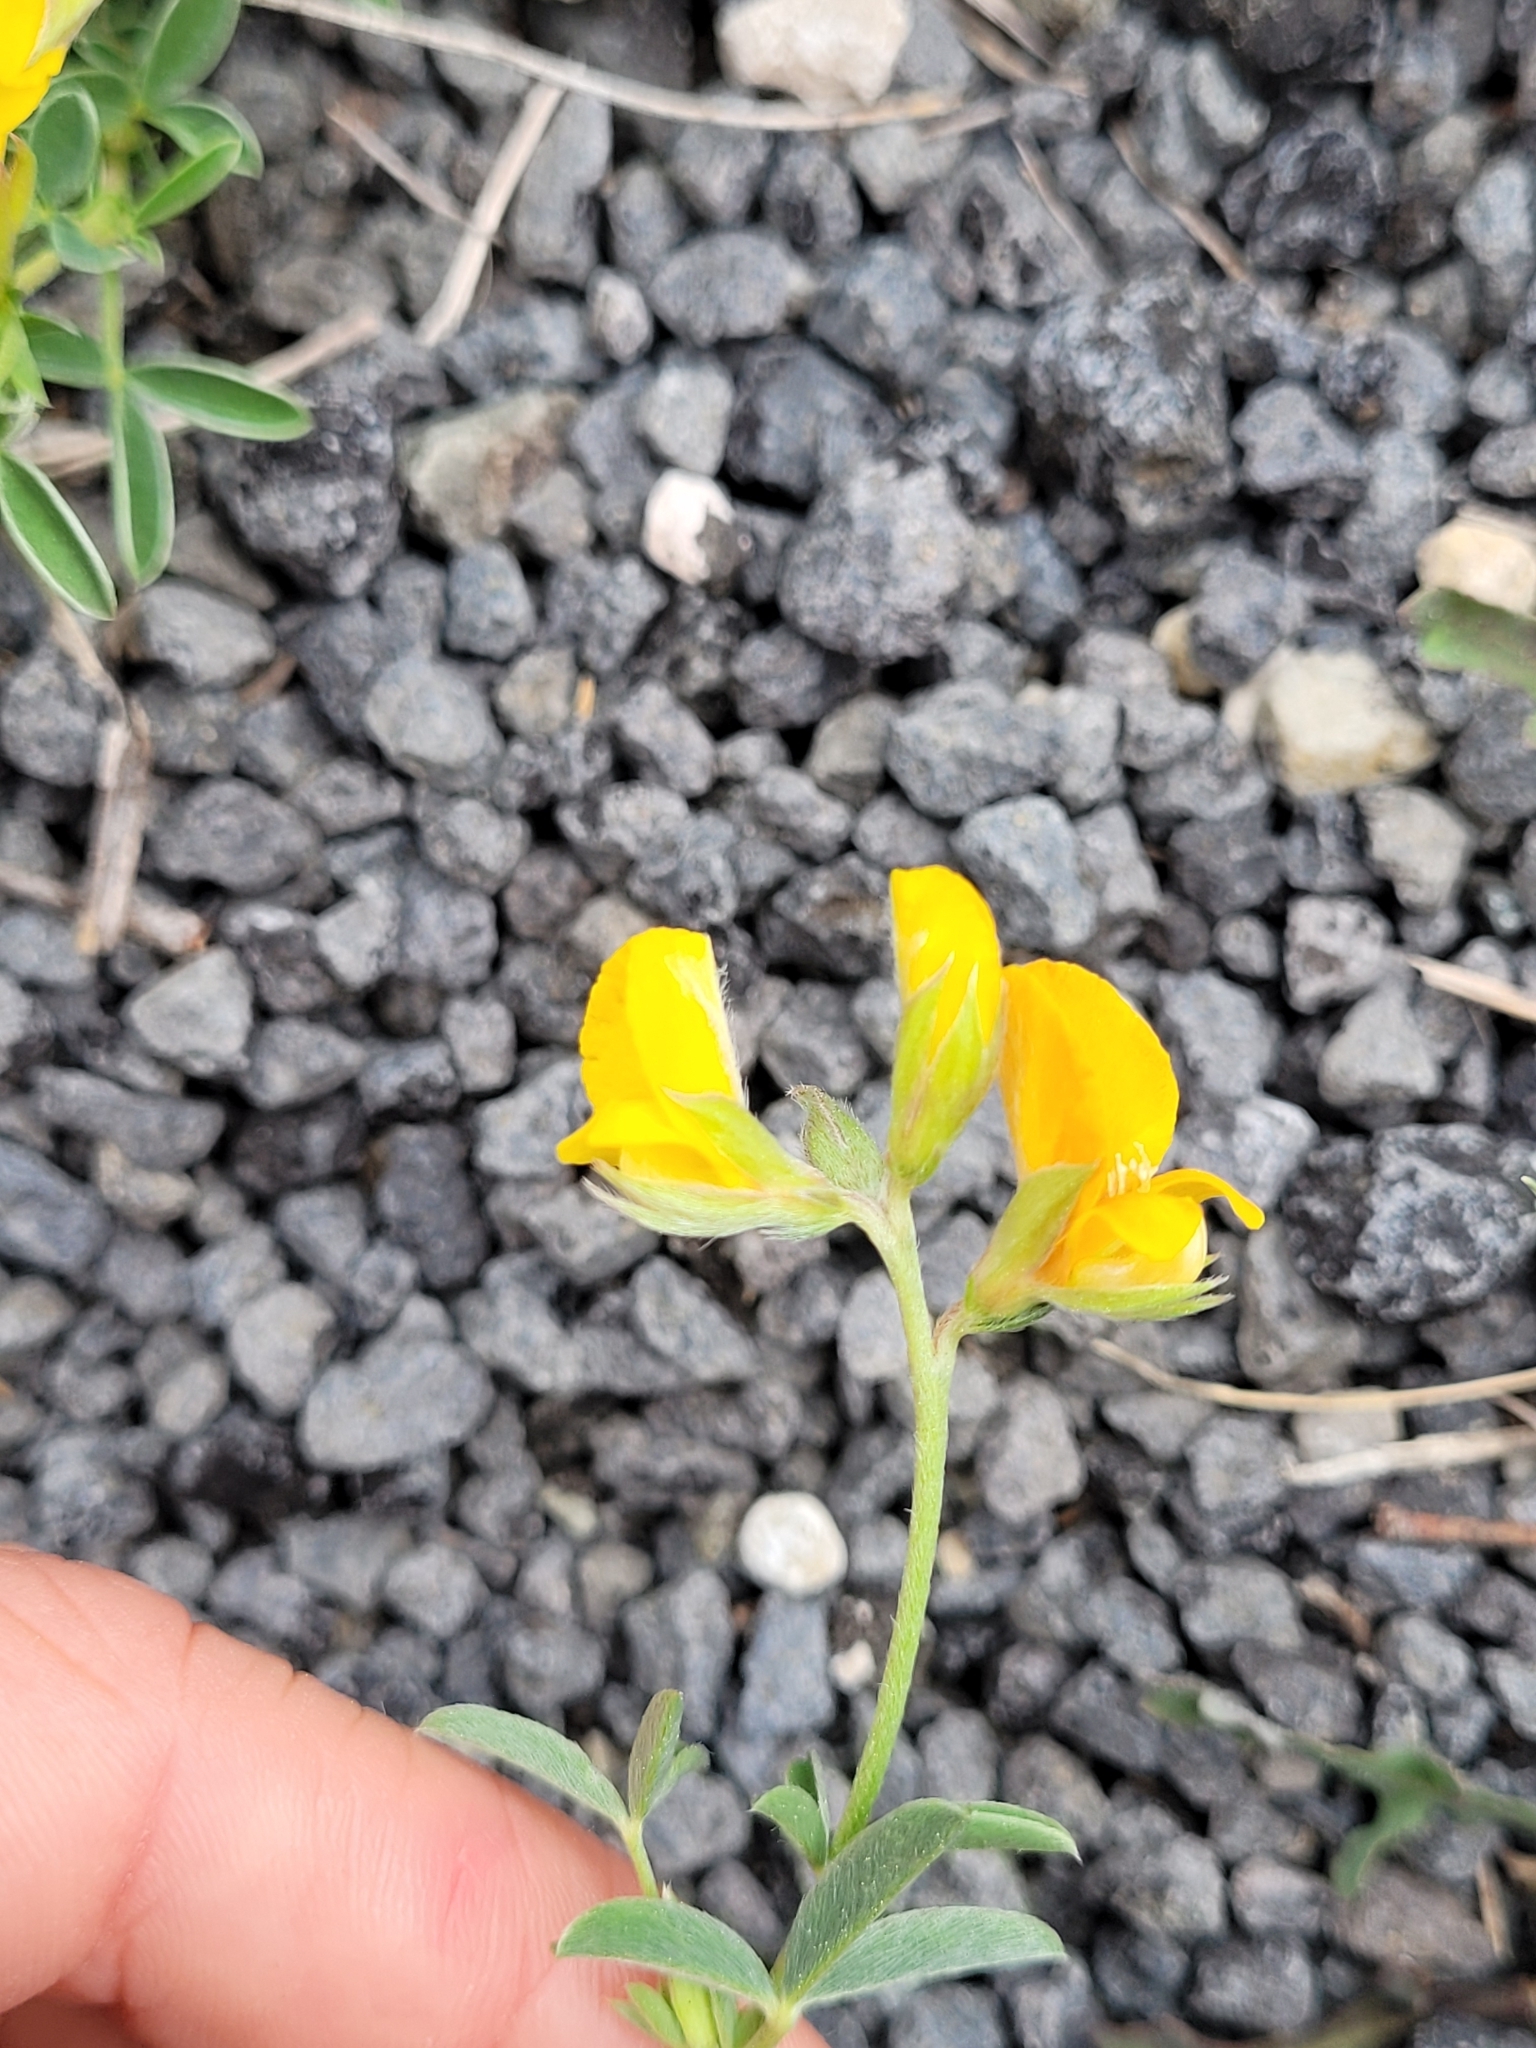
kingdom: Plantae
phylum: Tracheophyta
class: Magnoliopsida
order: Fabales
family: Fabaceae
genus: Argyrolobium
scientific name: Argyrolobium zanonii
